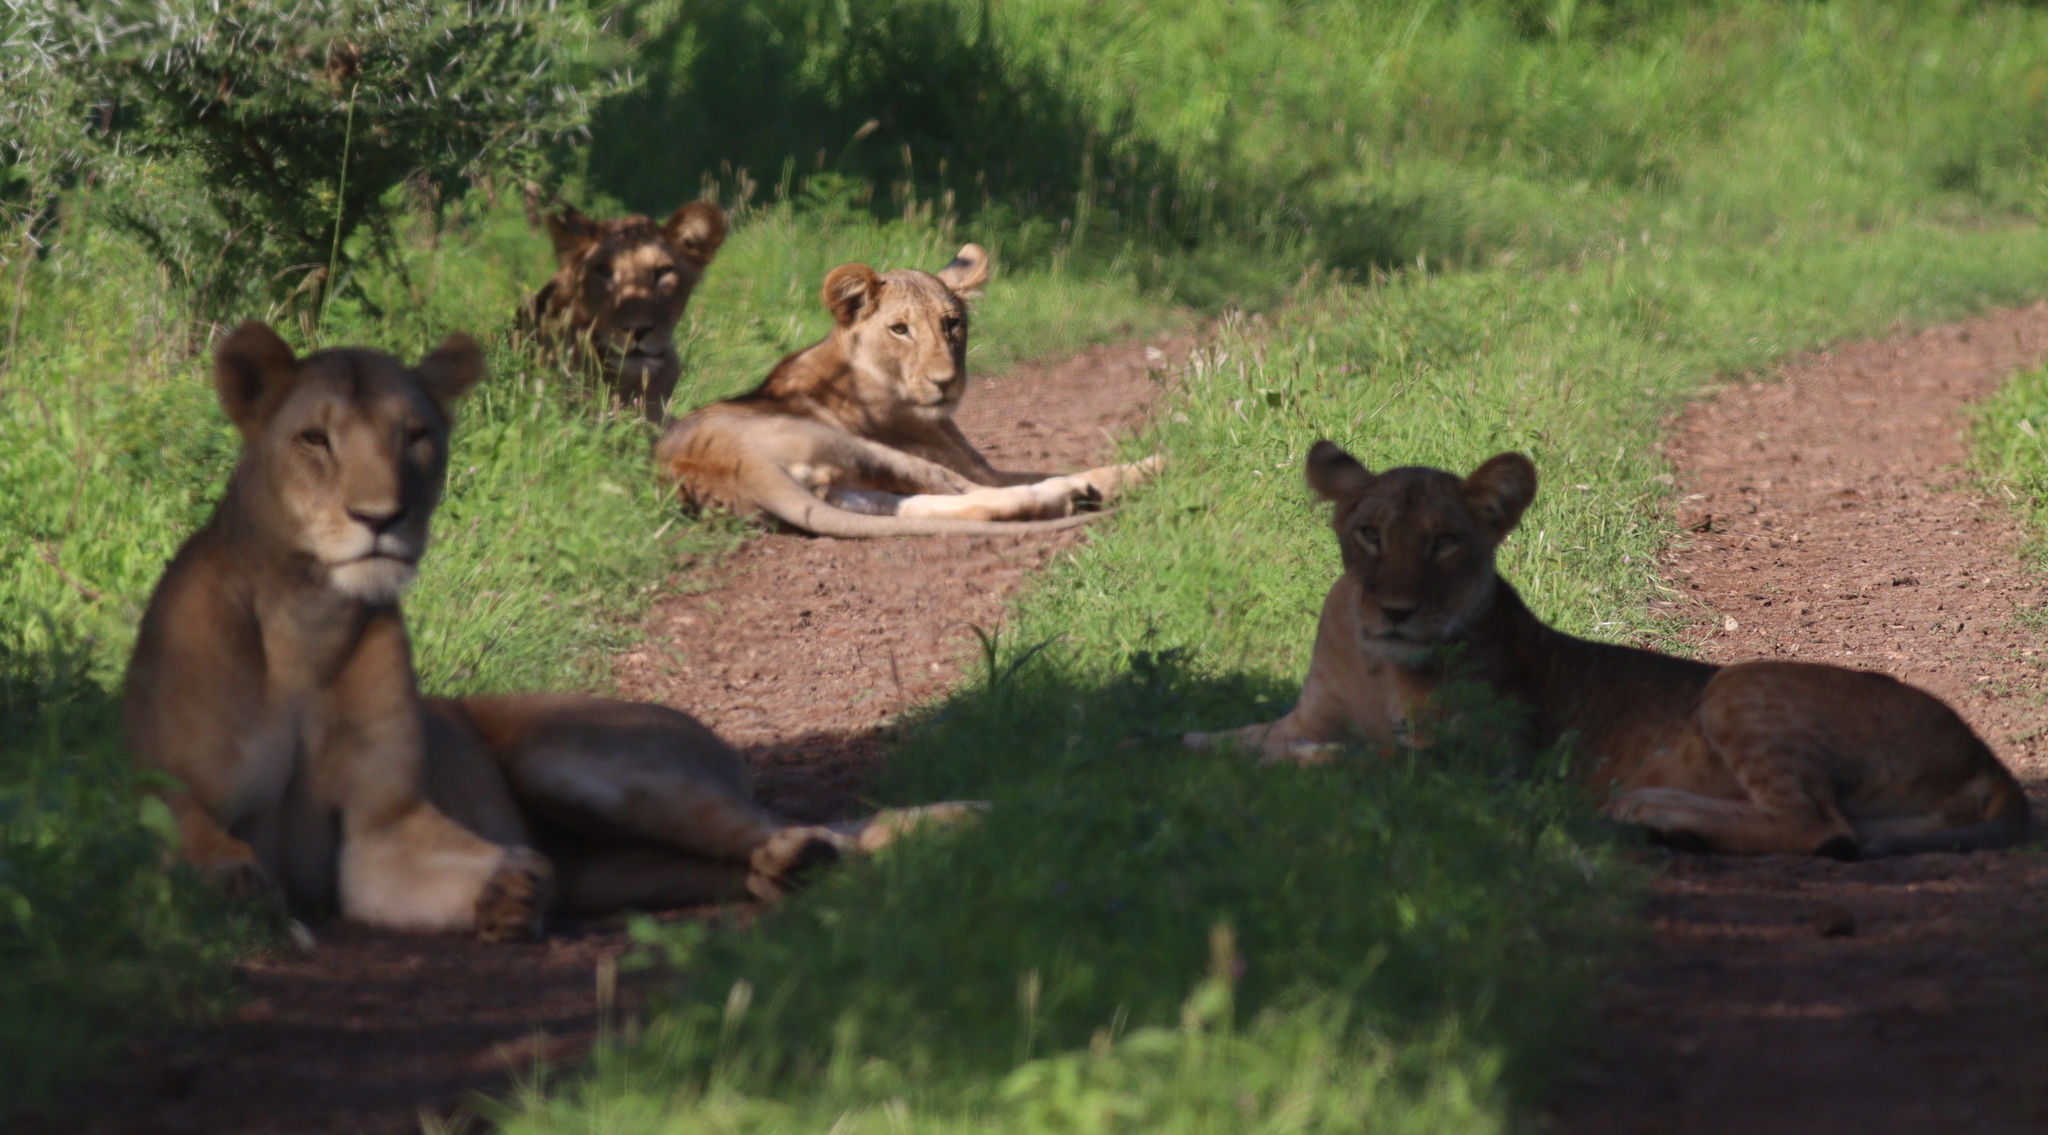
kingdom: Animalia
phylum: Chordata
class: Mammalia
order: Carnivora
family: Felidae
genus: Panthera
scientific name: Panthera leo
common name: Lion
